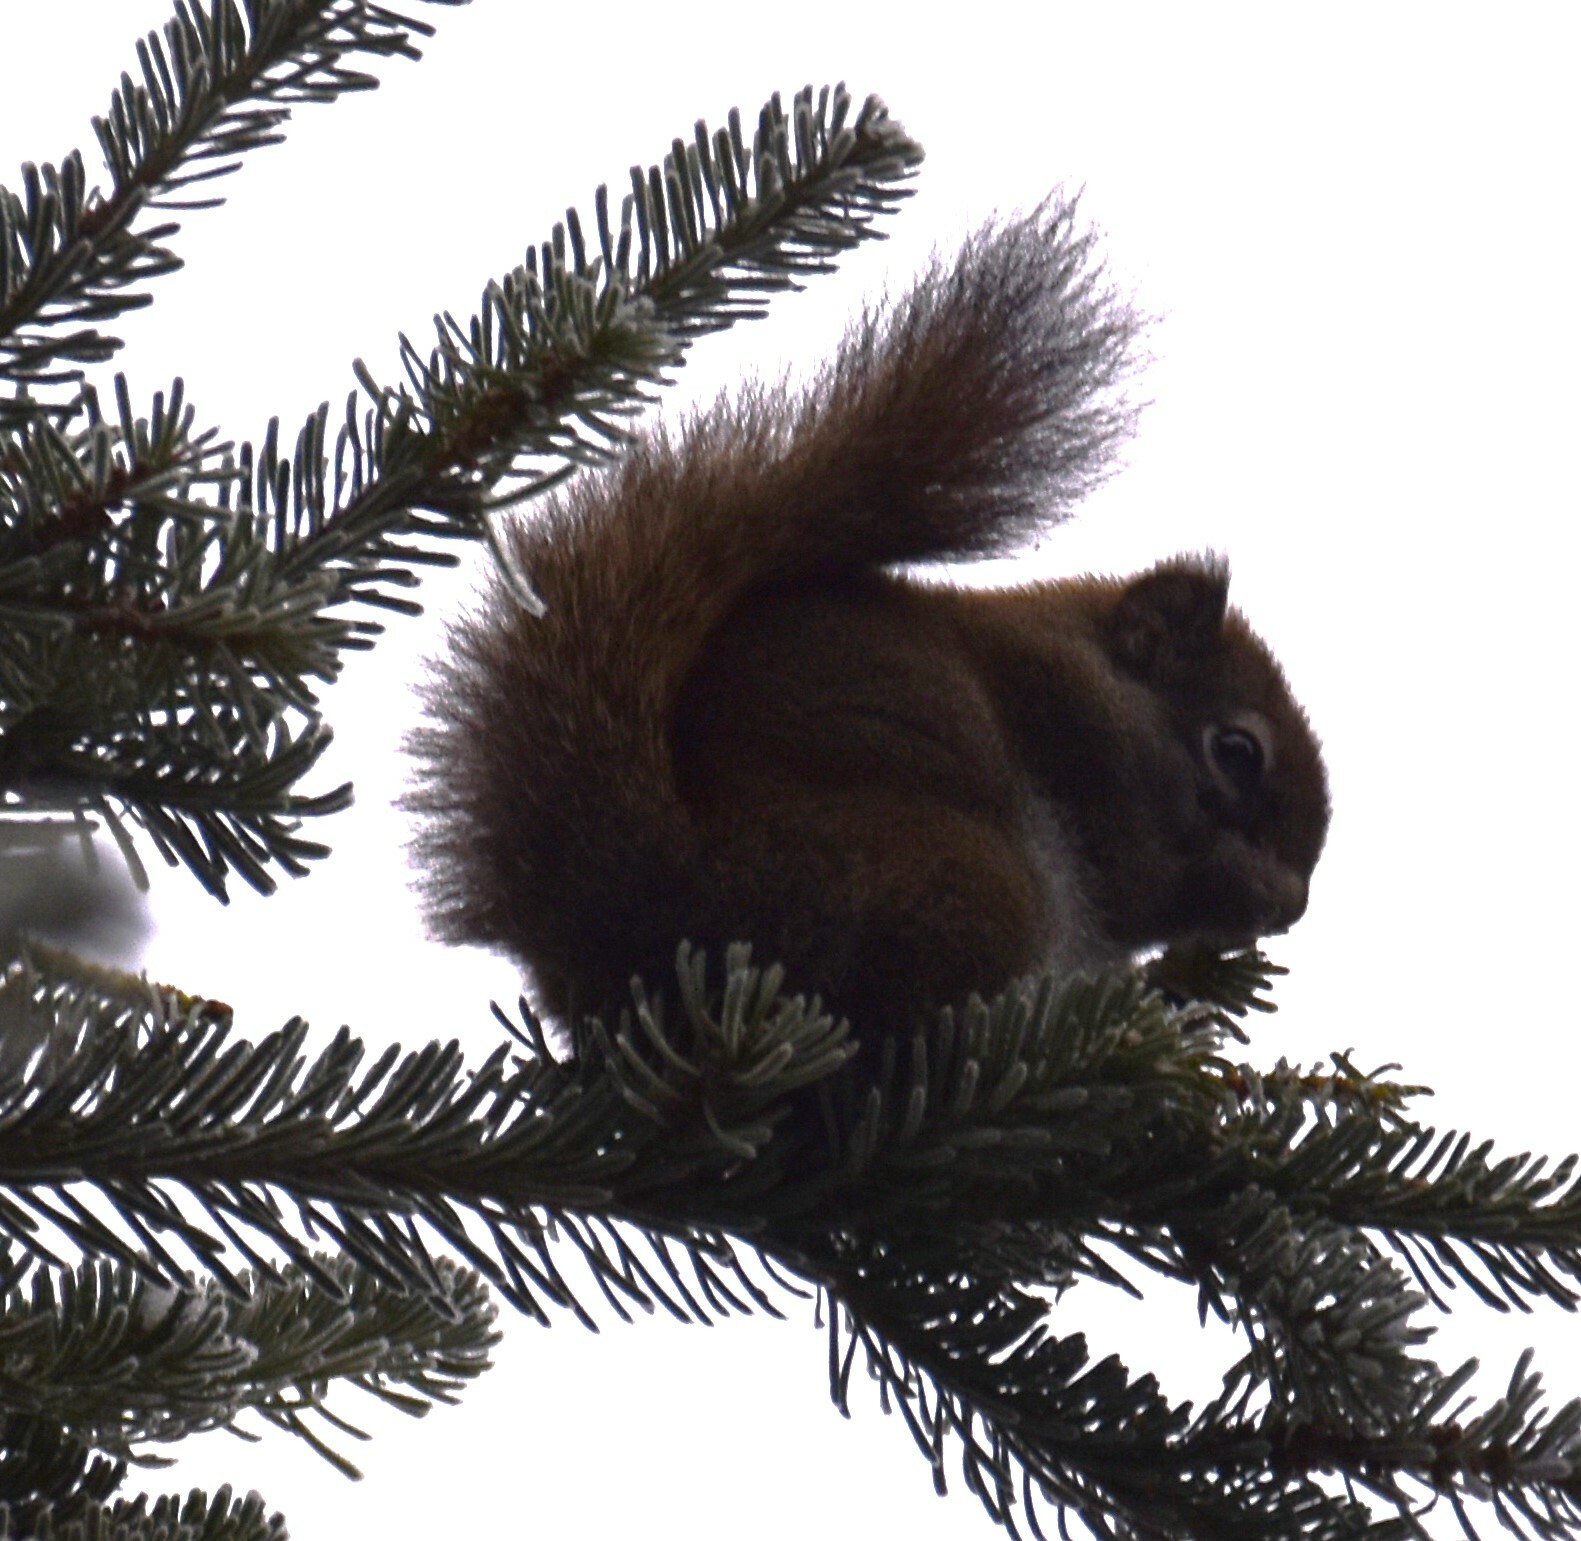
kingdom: Animalia
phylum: Chordata
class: Mammalia
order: Rodentia
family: Sciuridae
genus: Tamiasciurus
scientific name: Tamiasciurus hudsonicus
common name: Red squirrel
